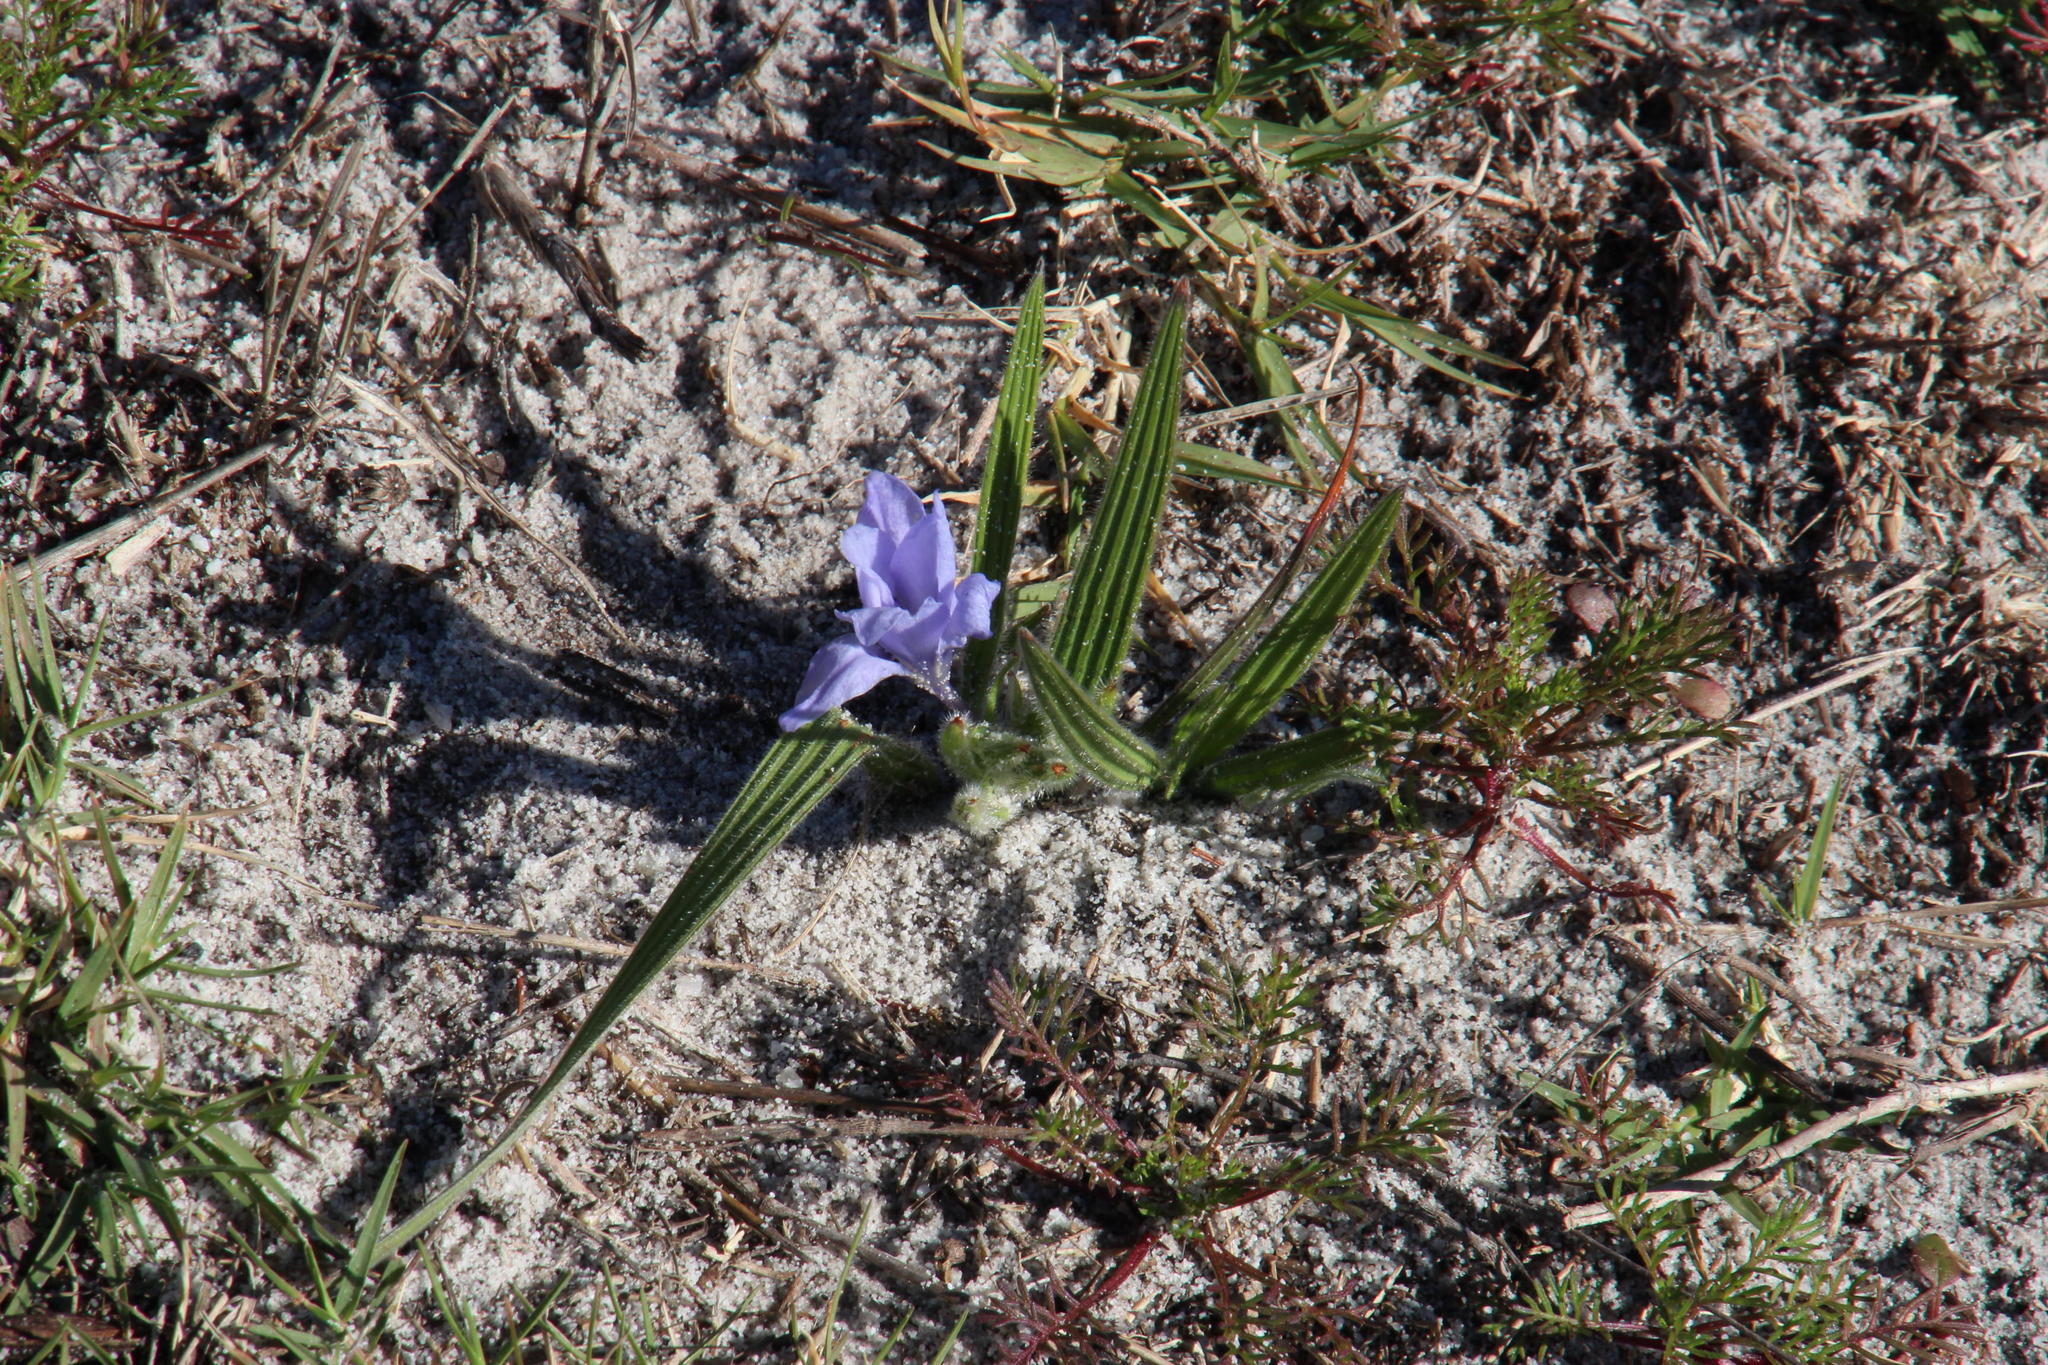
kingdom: Plantae
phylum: Tracheophyta
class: Liliopsida
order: Asparagales
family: Iridaceae
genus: Babiana
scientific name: Babiana villosula
